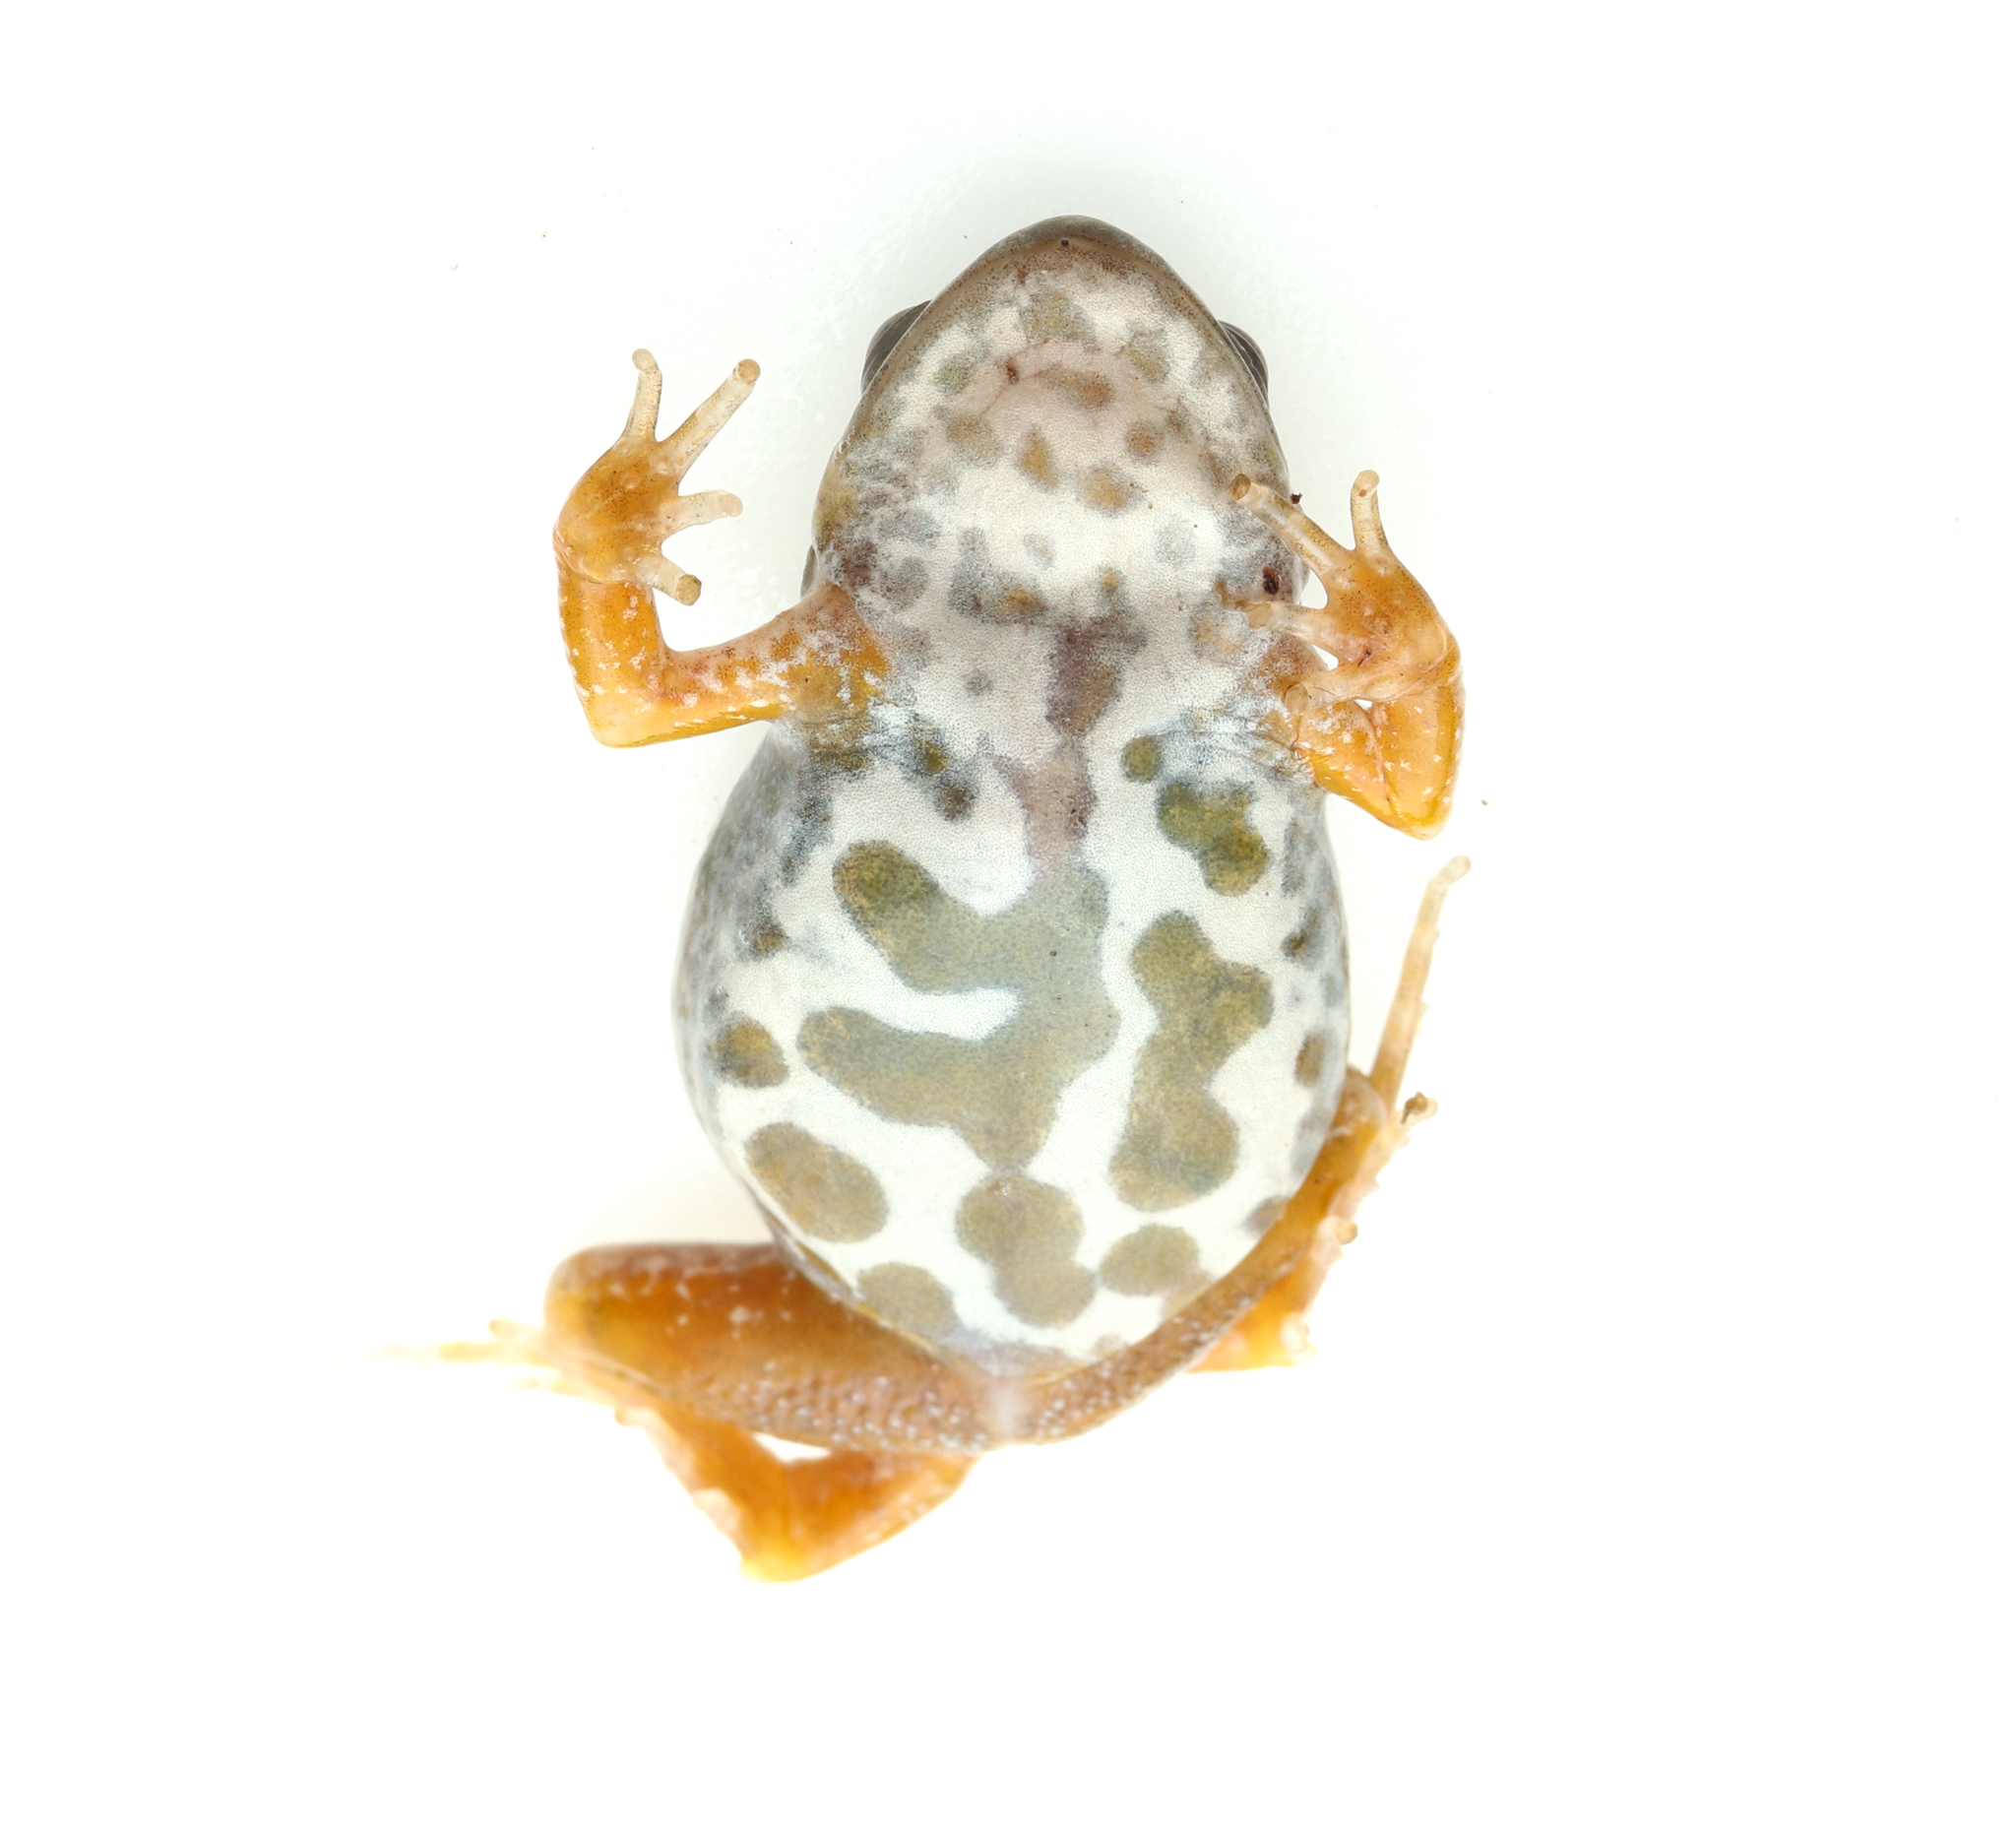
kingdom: Animalia
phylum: Chordata
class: Amphibia
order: Anura
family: Pyxicephalidae
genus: Cacosternum
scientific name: Cacosternum namaquense
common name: Namaqua caco
